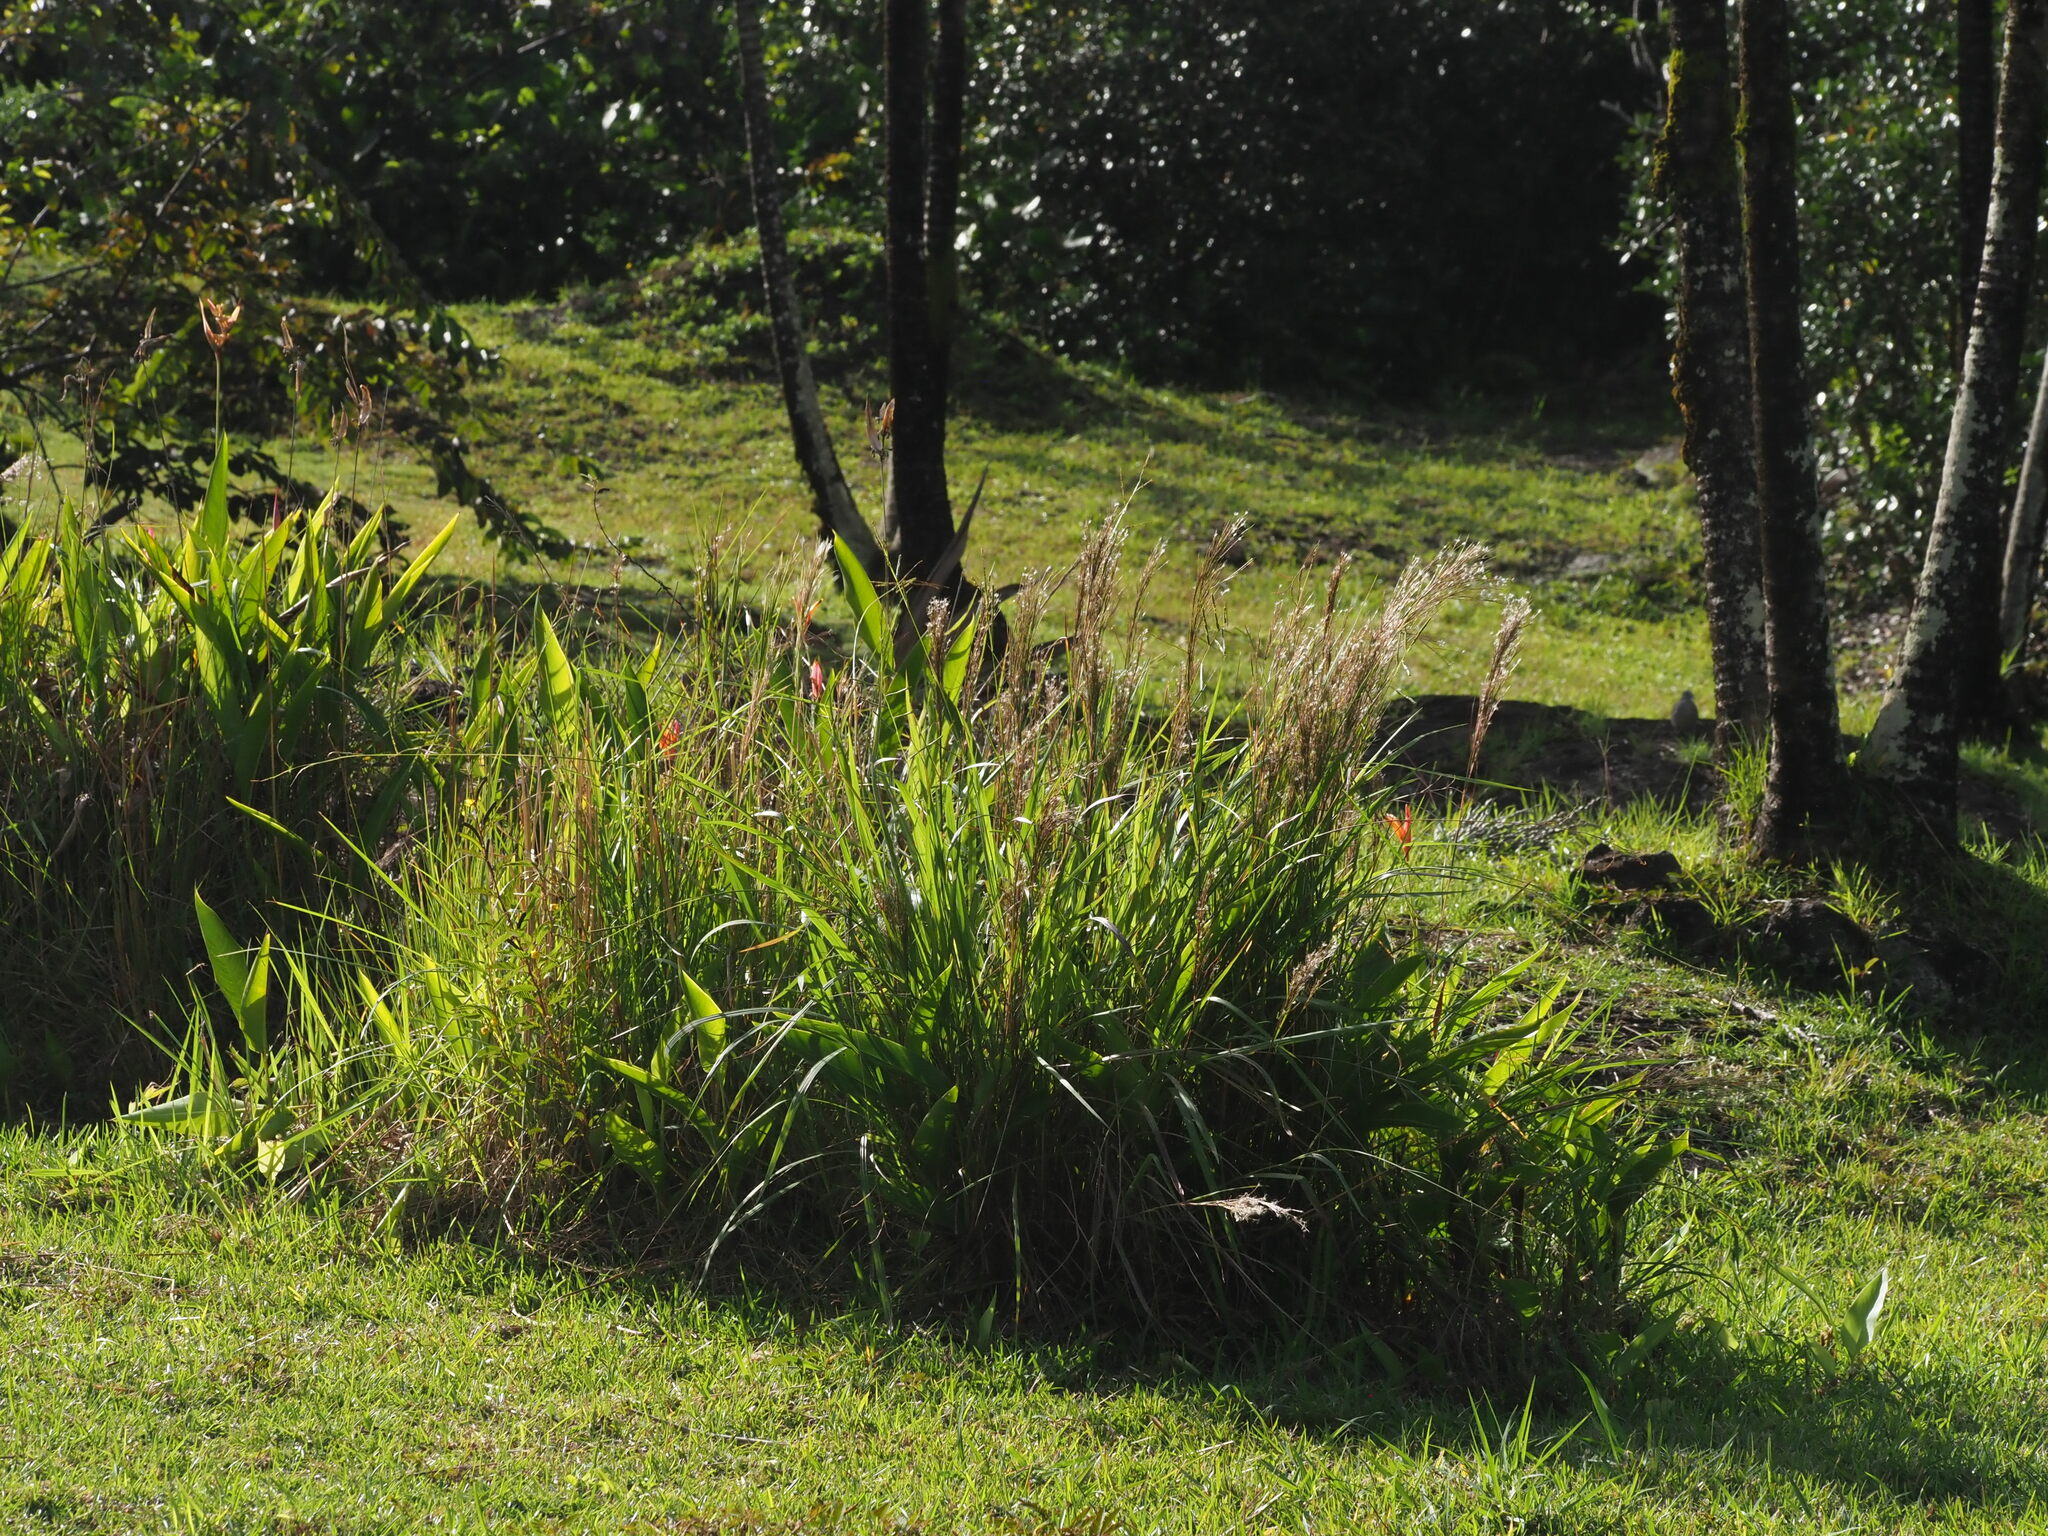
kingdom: Plantae
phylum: Tracheophyta
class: Liliopsida
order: Poales
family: Poaceae
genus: Schizachyrium
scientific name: Schizachyrium microstachyum
